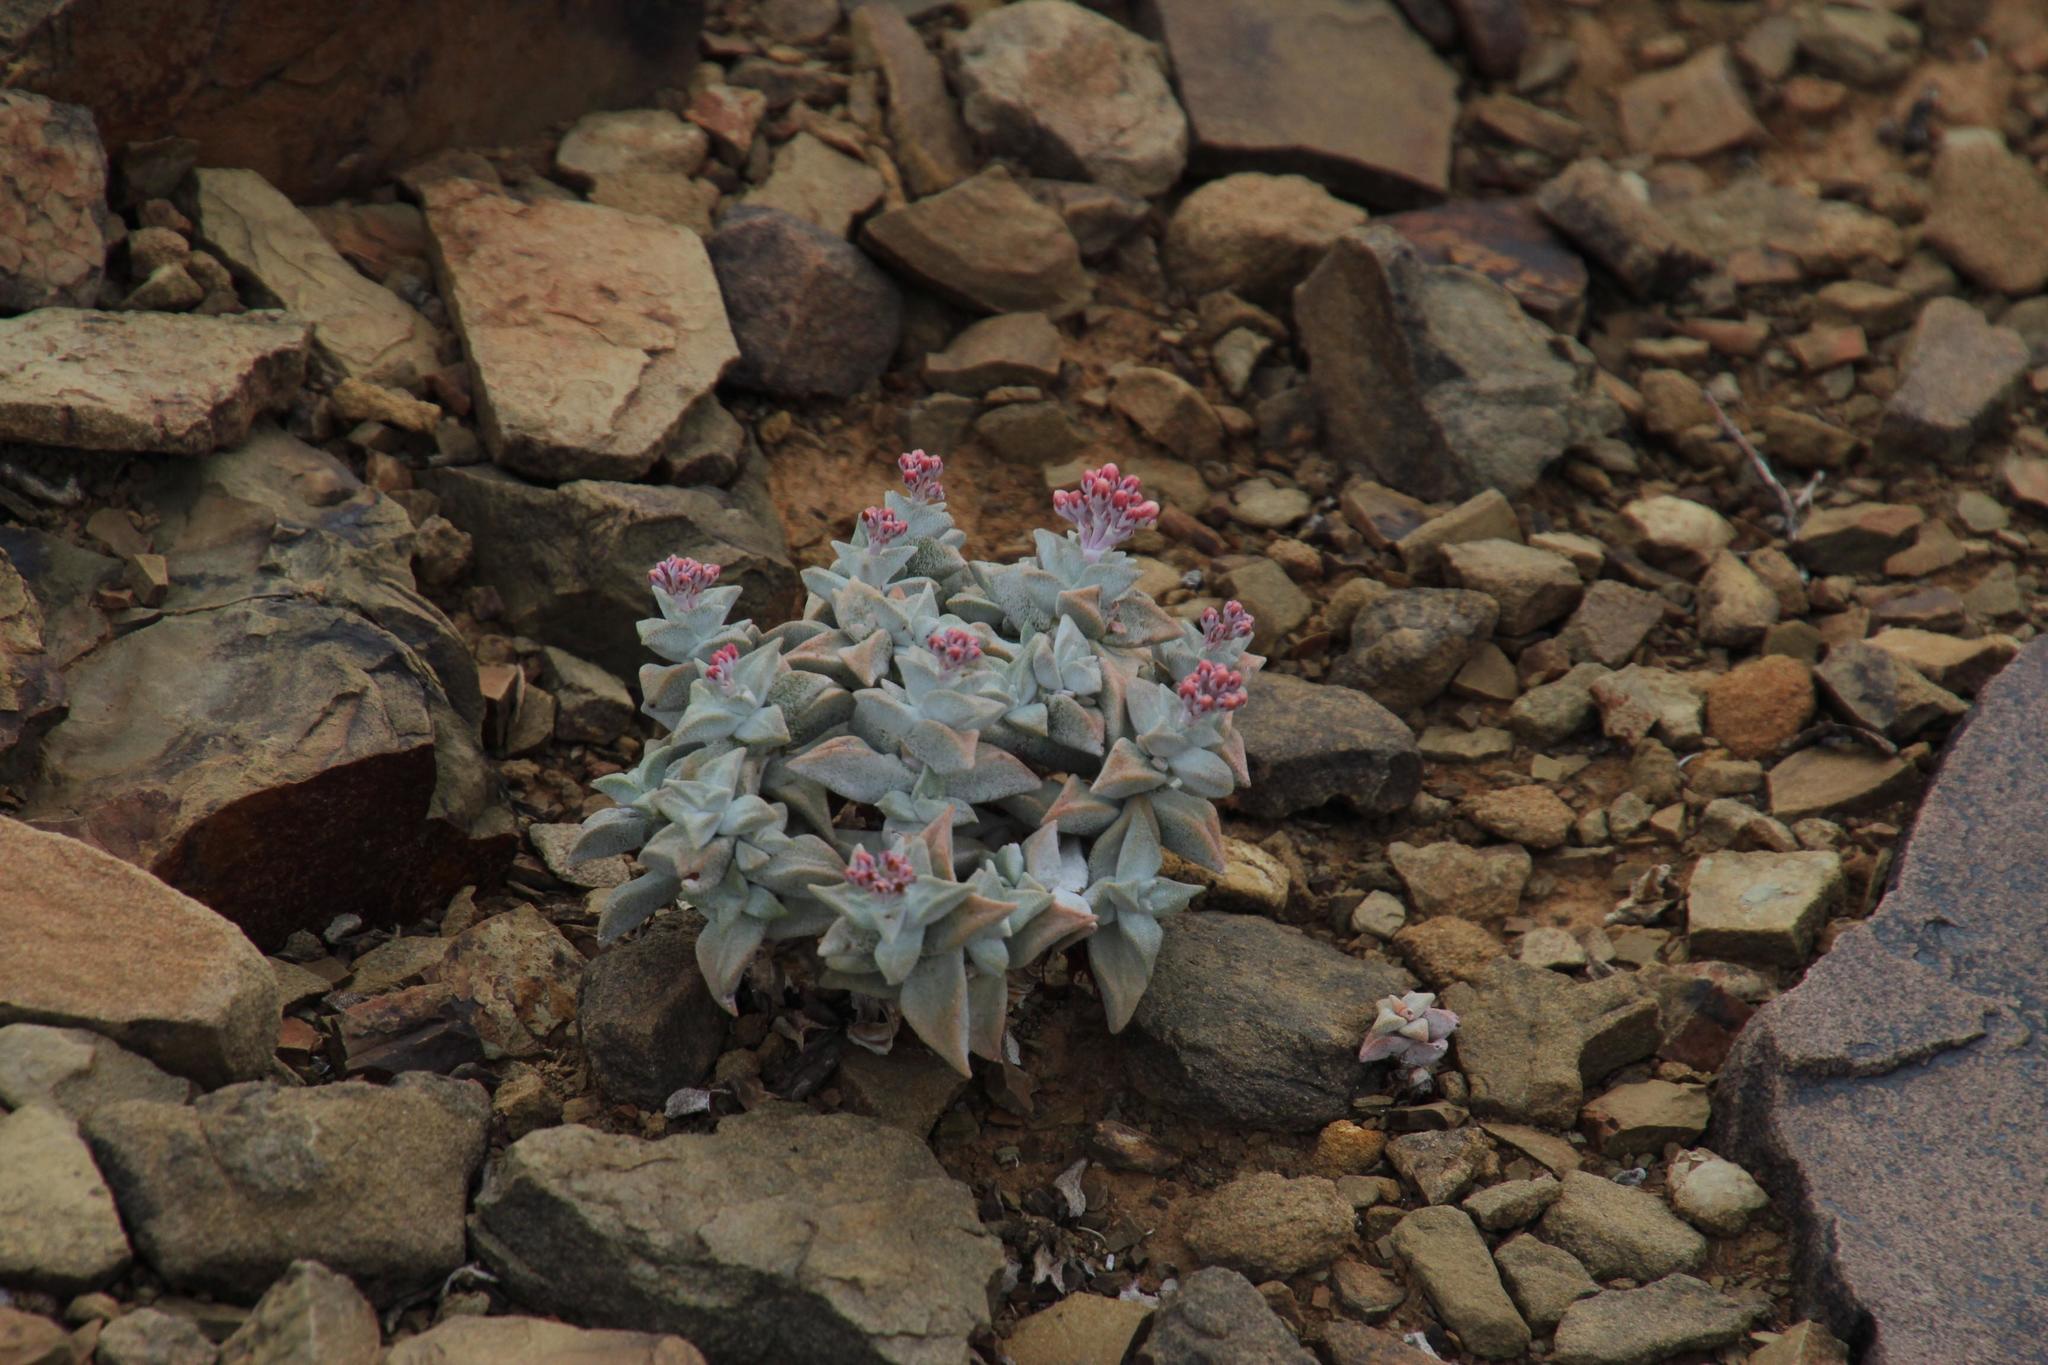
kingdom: Plantae
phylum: Tracheophyta
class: Magnoliopsida
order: Saxifragales
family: Crassulaceae
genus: Crassula
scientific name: Crassula deltoidea
